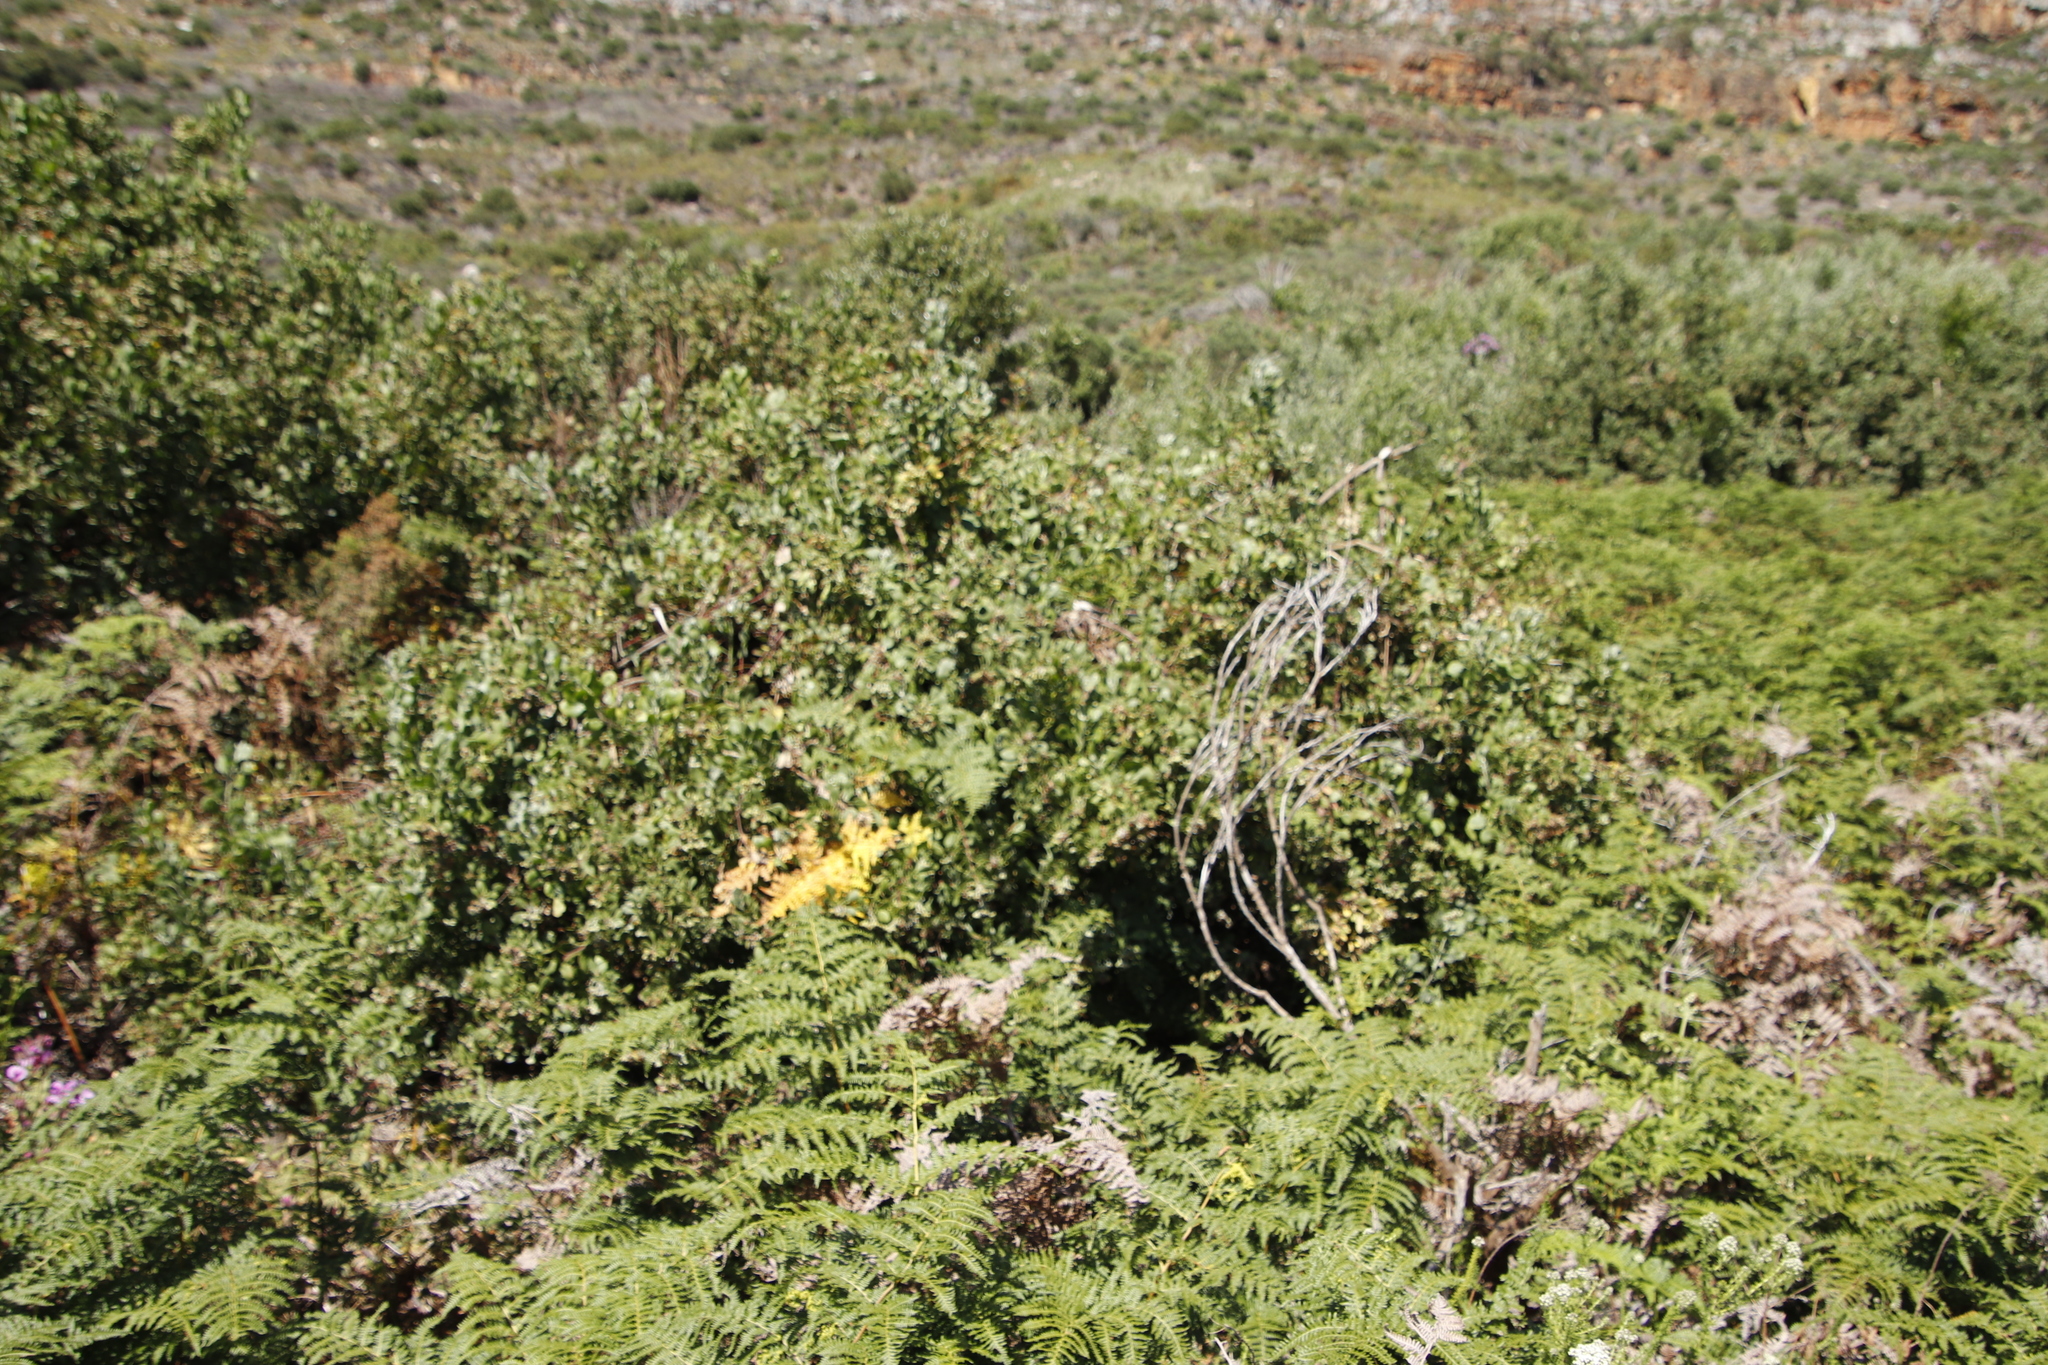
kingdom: Plantae
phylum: Tracheophyta
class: Magnoliopsida
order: Asterales
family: Asteraceae
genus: Osteospermum
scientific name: Osteospermum moniliferum
